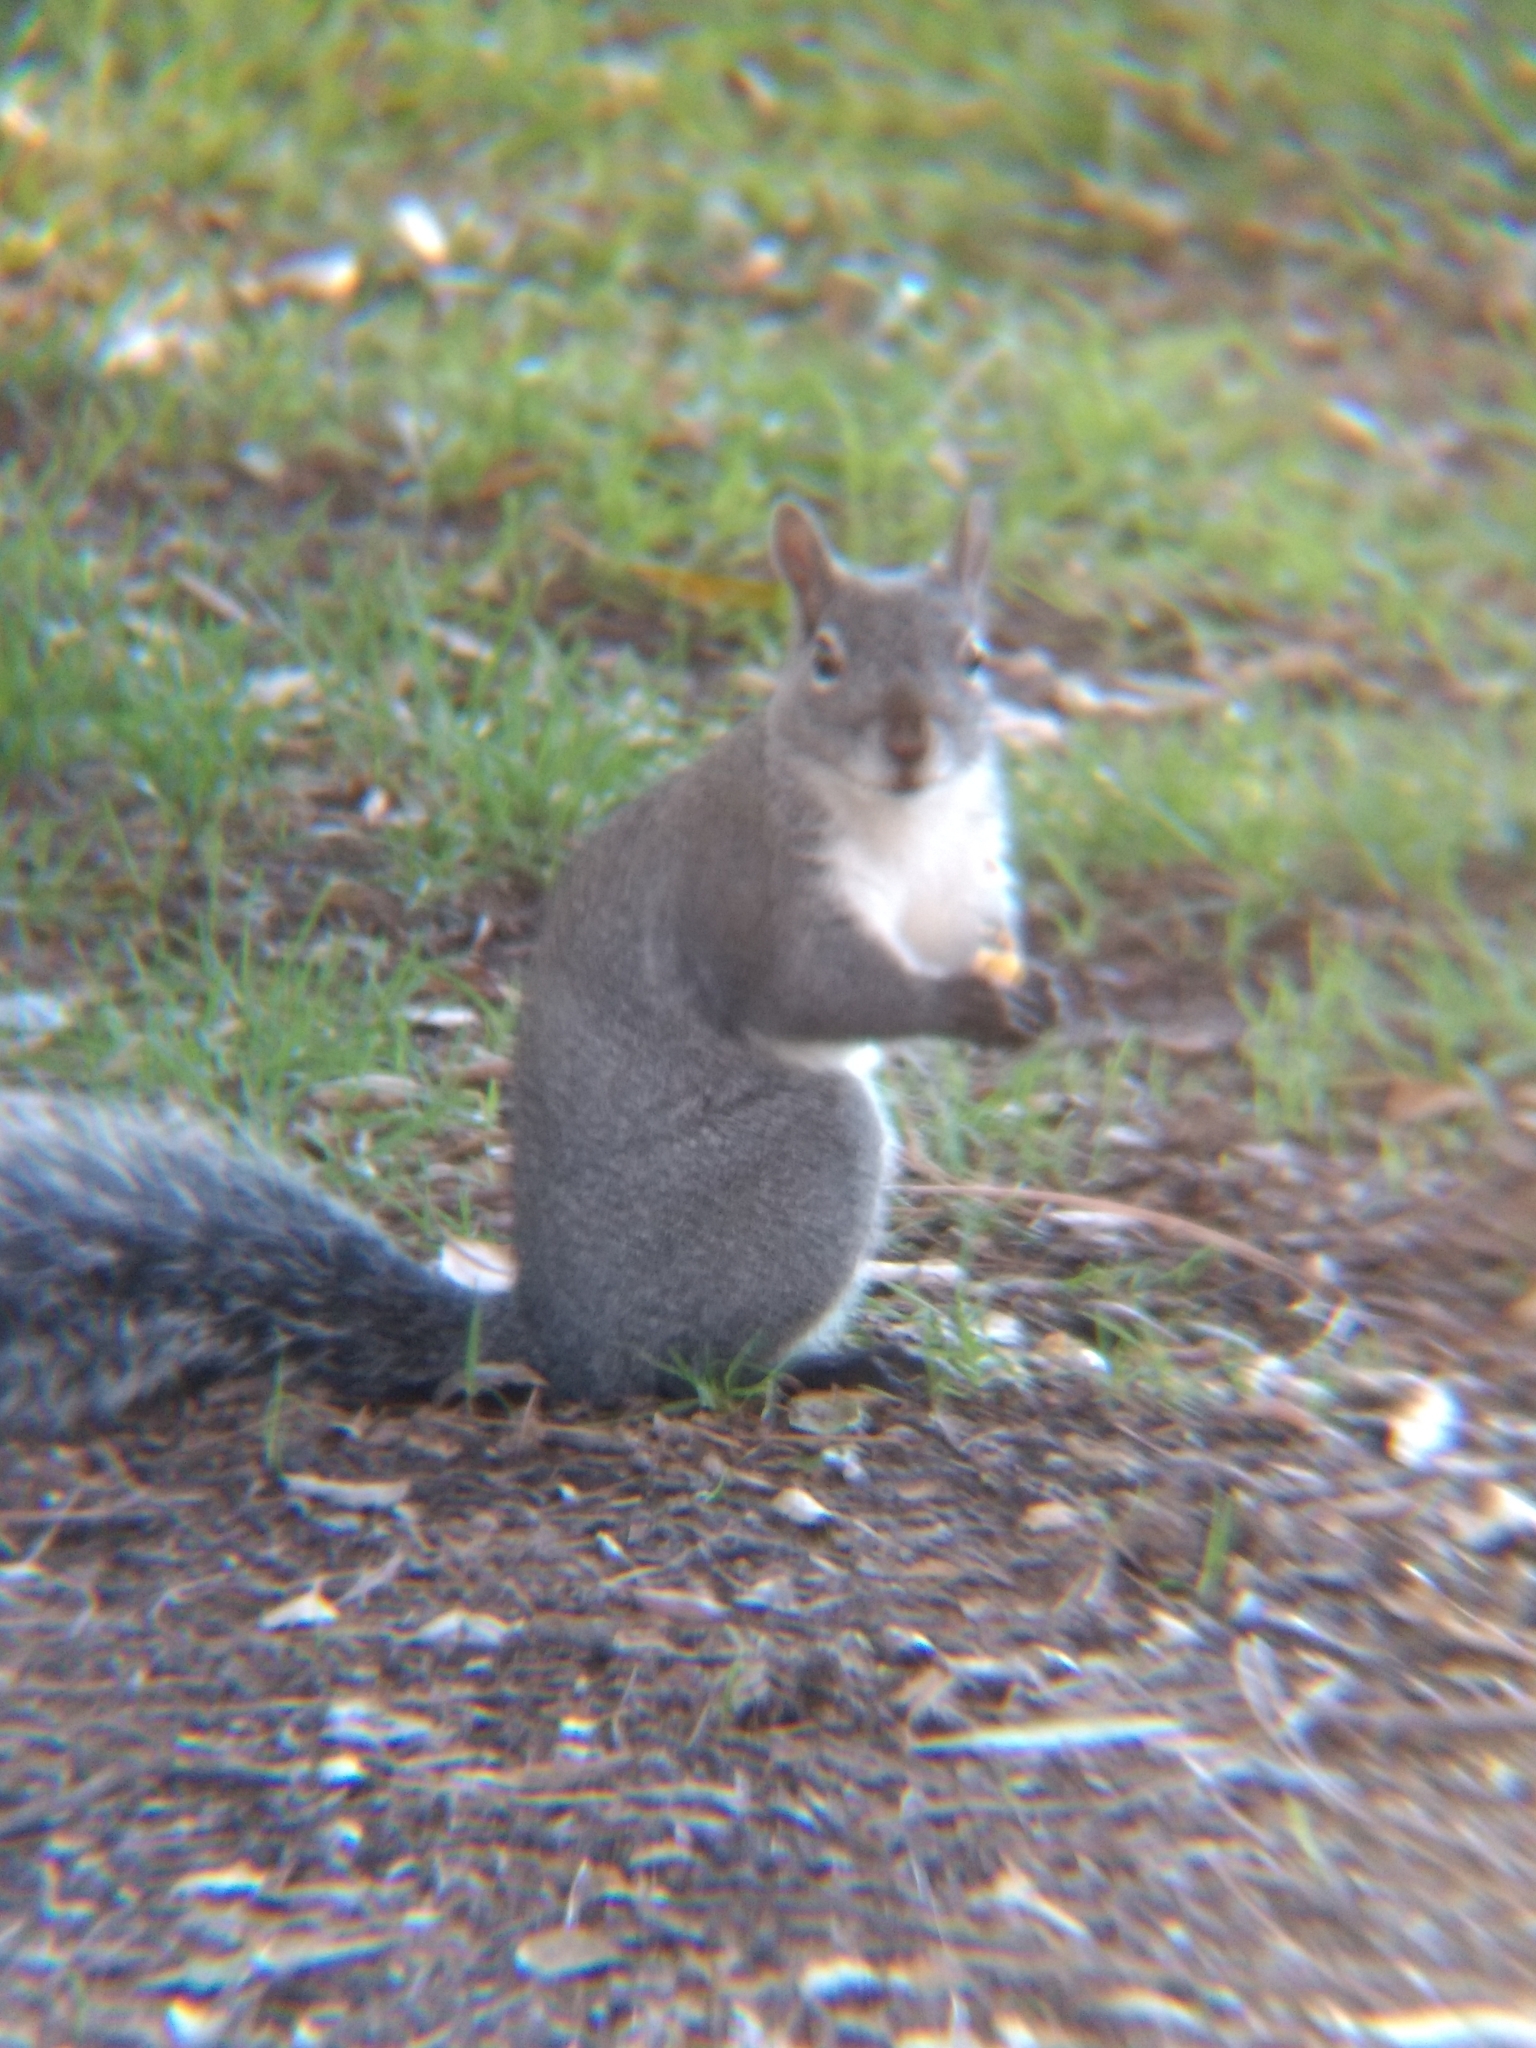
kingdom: Animalia
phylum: Chordata
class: Mammalia
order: Rodentia
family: Sciuridae
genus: Sciurus
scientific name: Sciurus griseus
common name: Western gray squirrel
